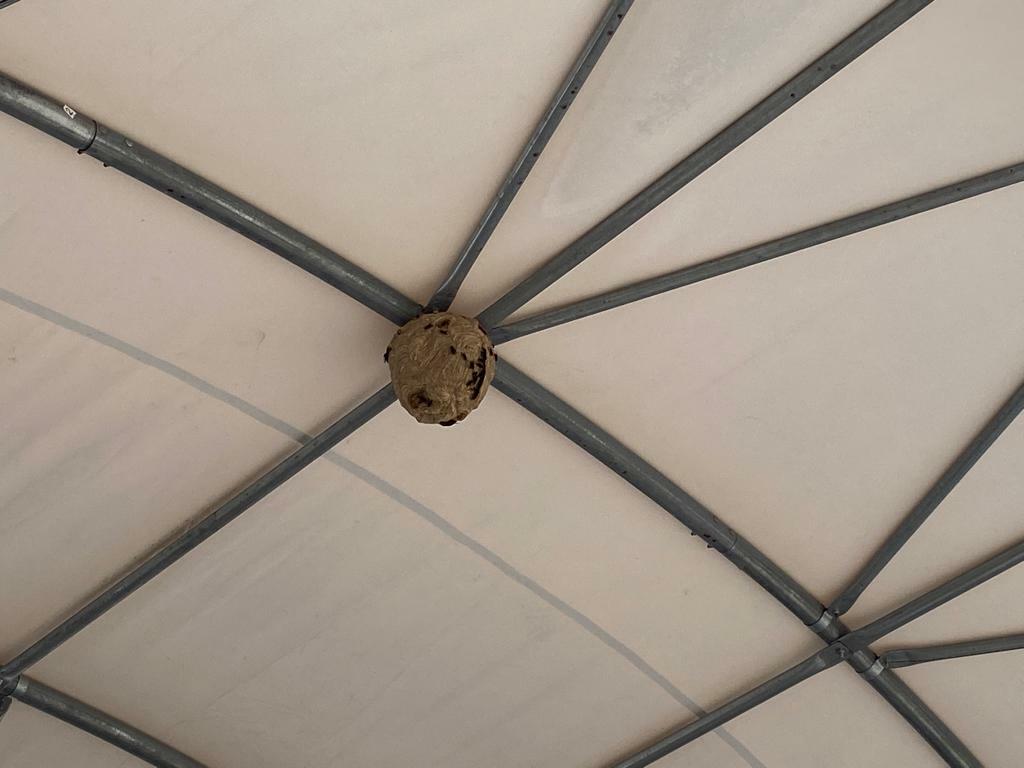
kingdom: Animalia
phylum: Arthropoda
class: Insecta
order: Hymenoptera
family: Vespidae
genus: Vespa
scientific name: Vespa velutina
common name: Asian hornet
